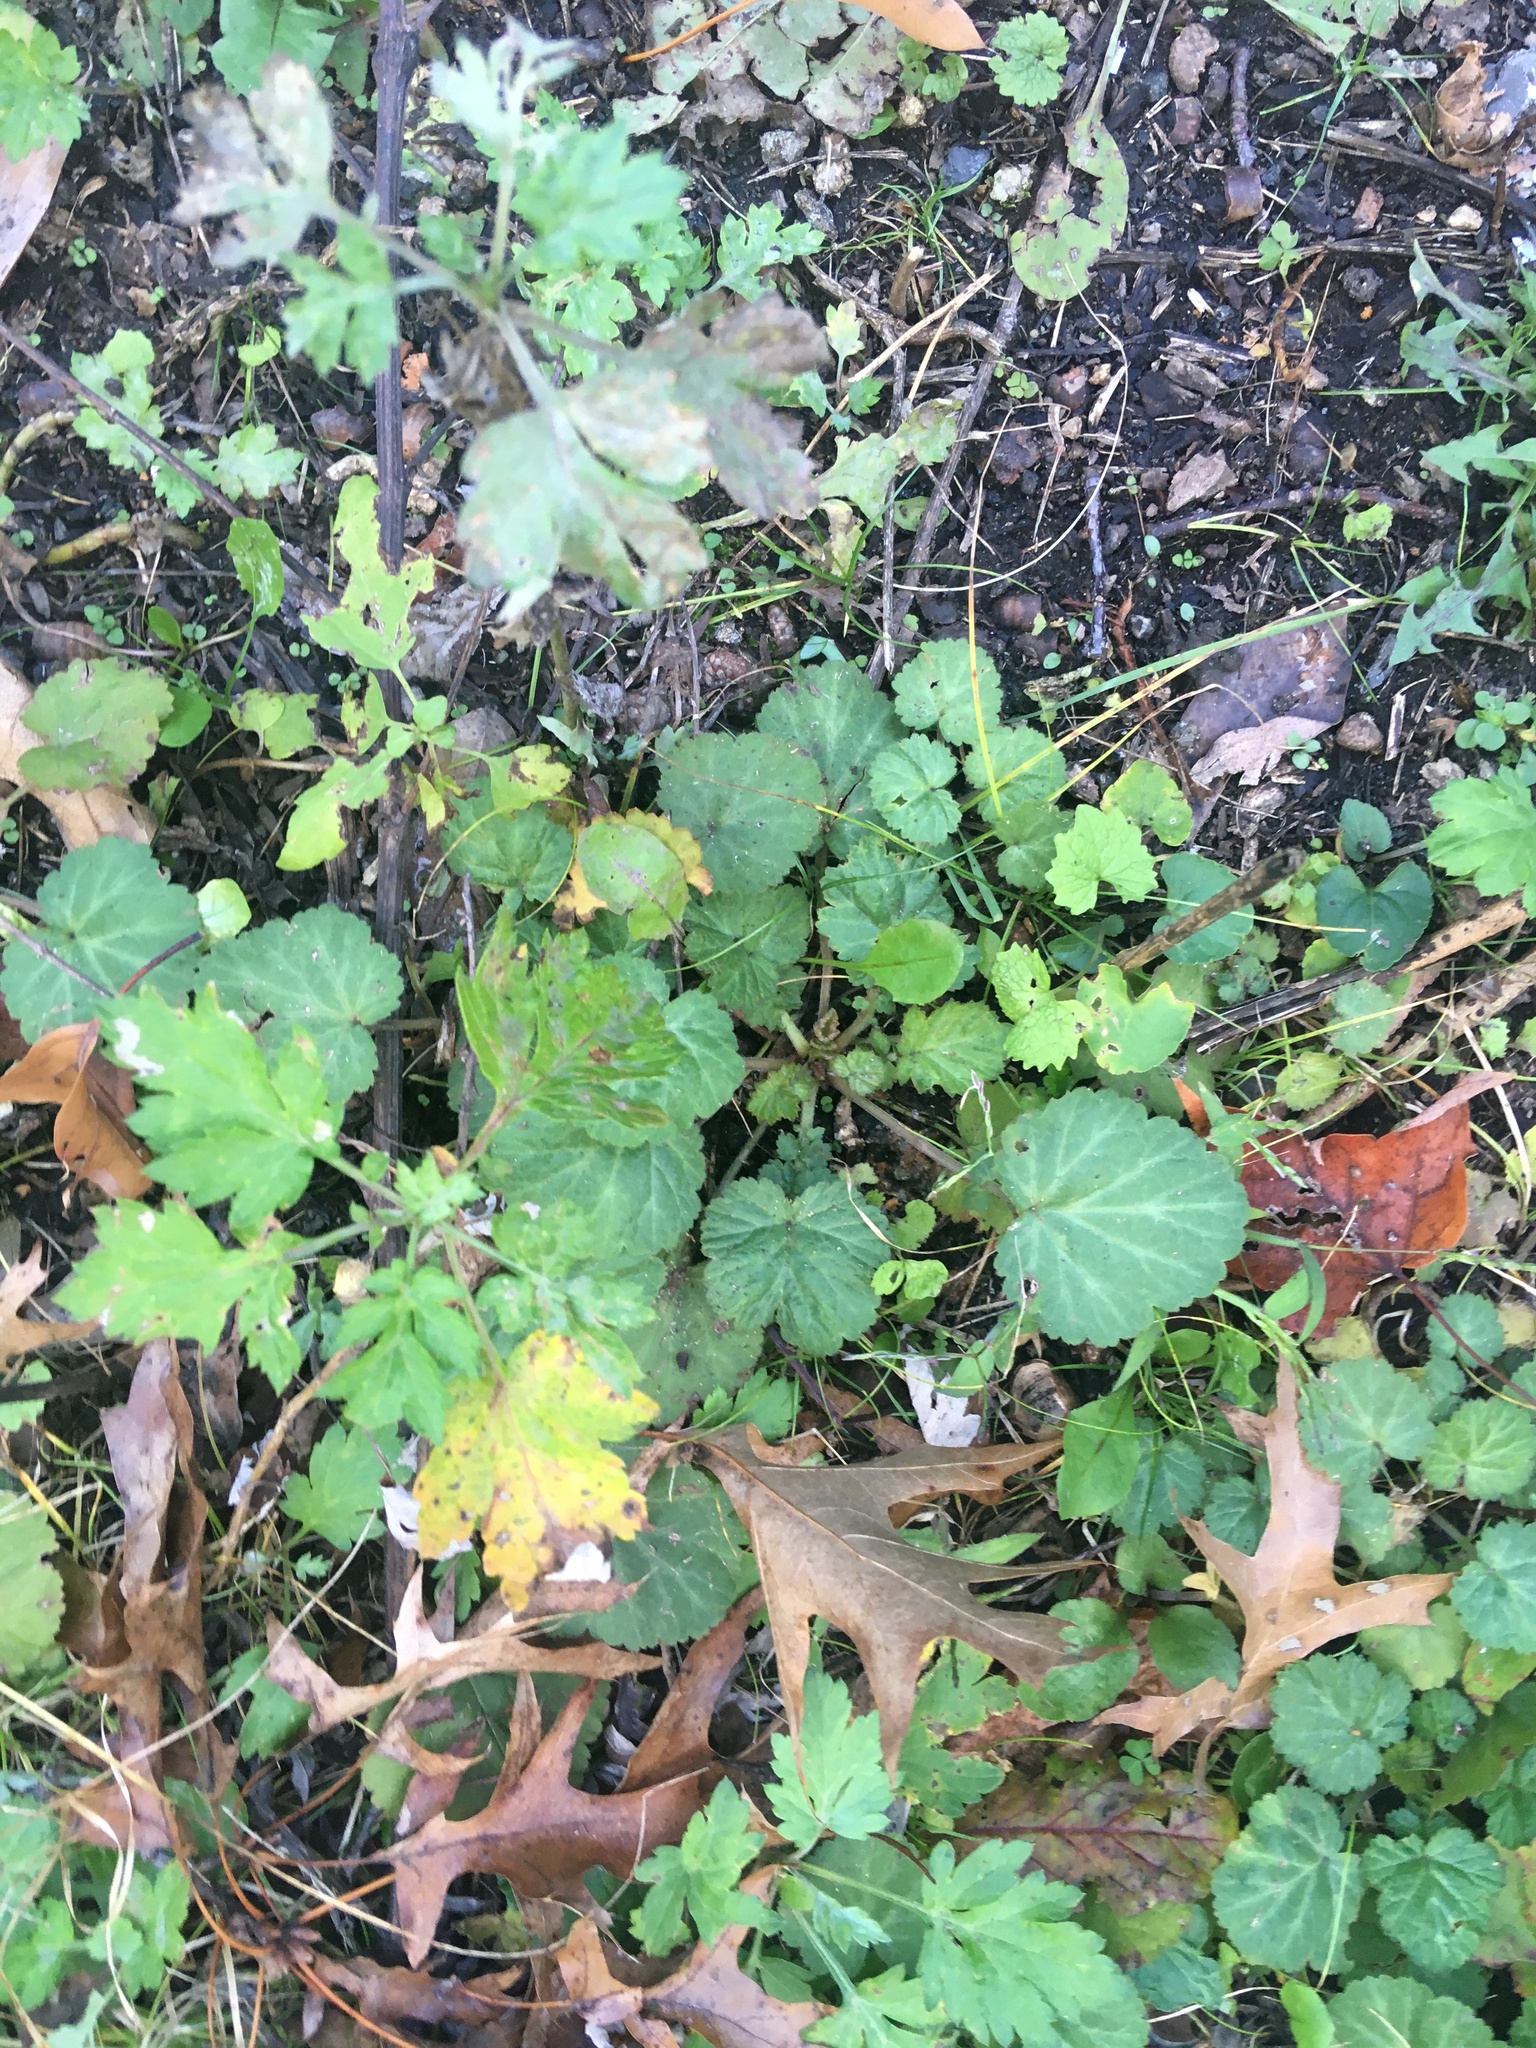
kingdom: Plantae
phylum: Tracheophyta
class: Magnoliopsida
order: Asterales
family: Asteraceae
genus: Artemisia
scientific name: Artemisia vulgaris
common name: Mugwort
